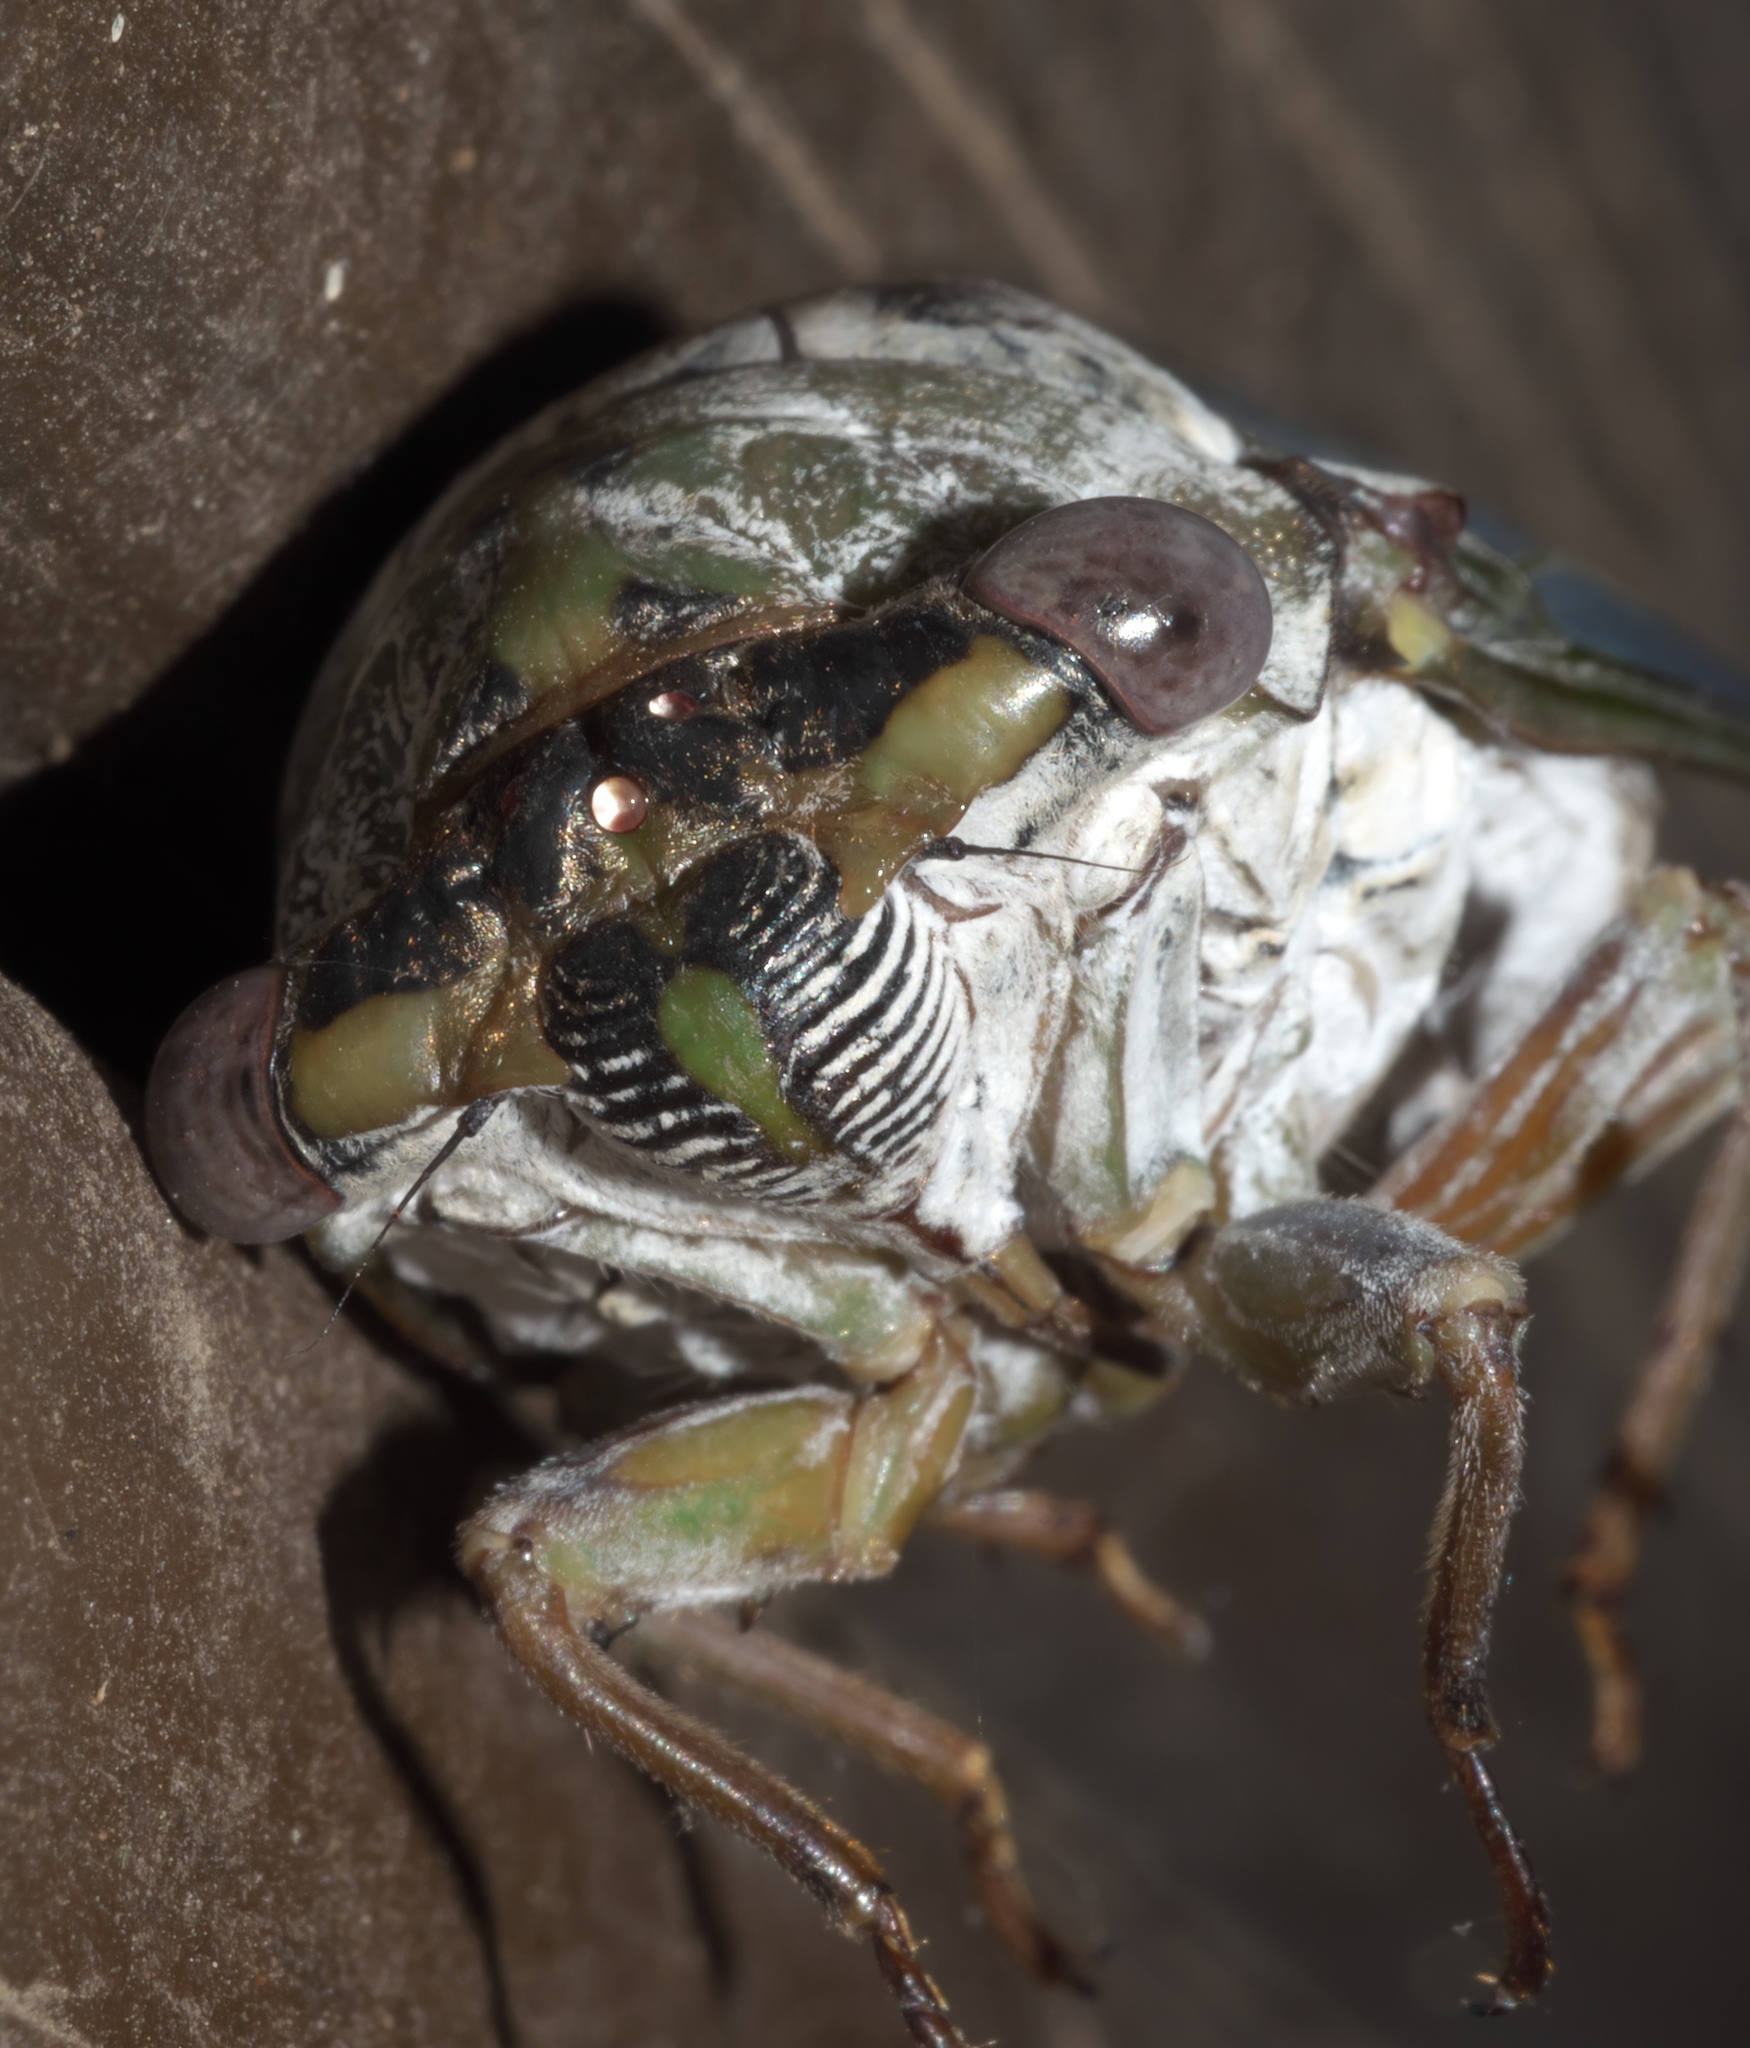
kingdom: Animalia
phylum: Arthropoda
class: Insecta
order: Hemiptera
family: Cicadidae
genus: Diceroprocta
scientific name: Diceroprocta grossa
